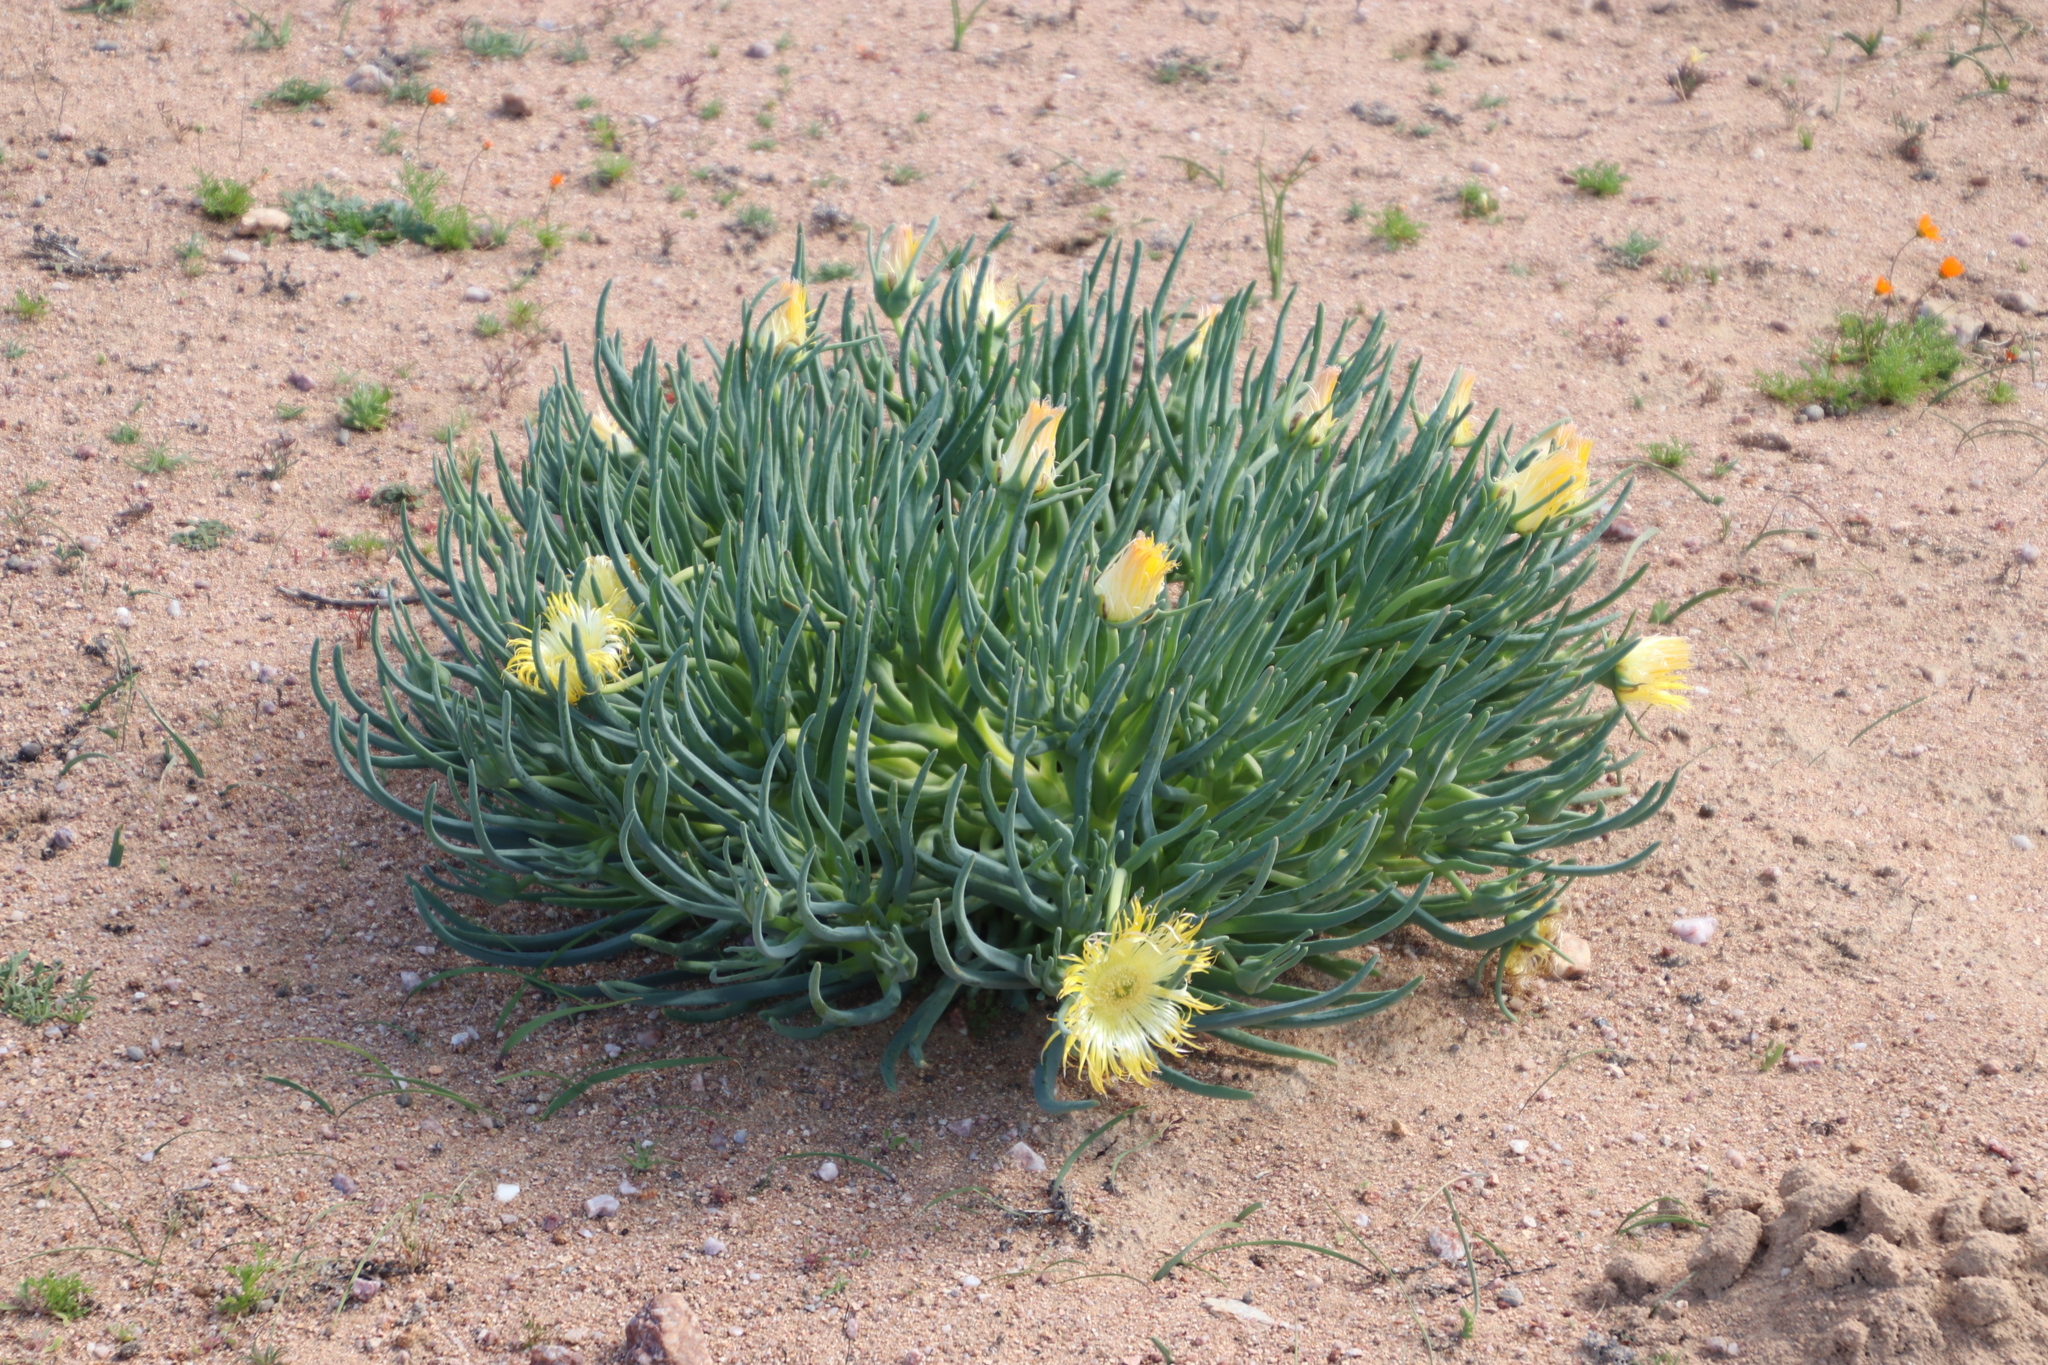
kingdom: Plantae
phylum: Tracheophyta
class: Magnoliopsida
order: Caryophyllales
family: Aizoaceae
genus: Conicosia
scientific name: Conicosia pugioniformis
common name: Narrow-leaved iceplant
